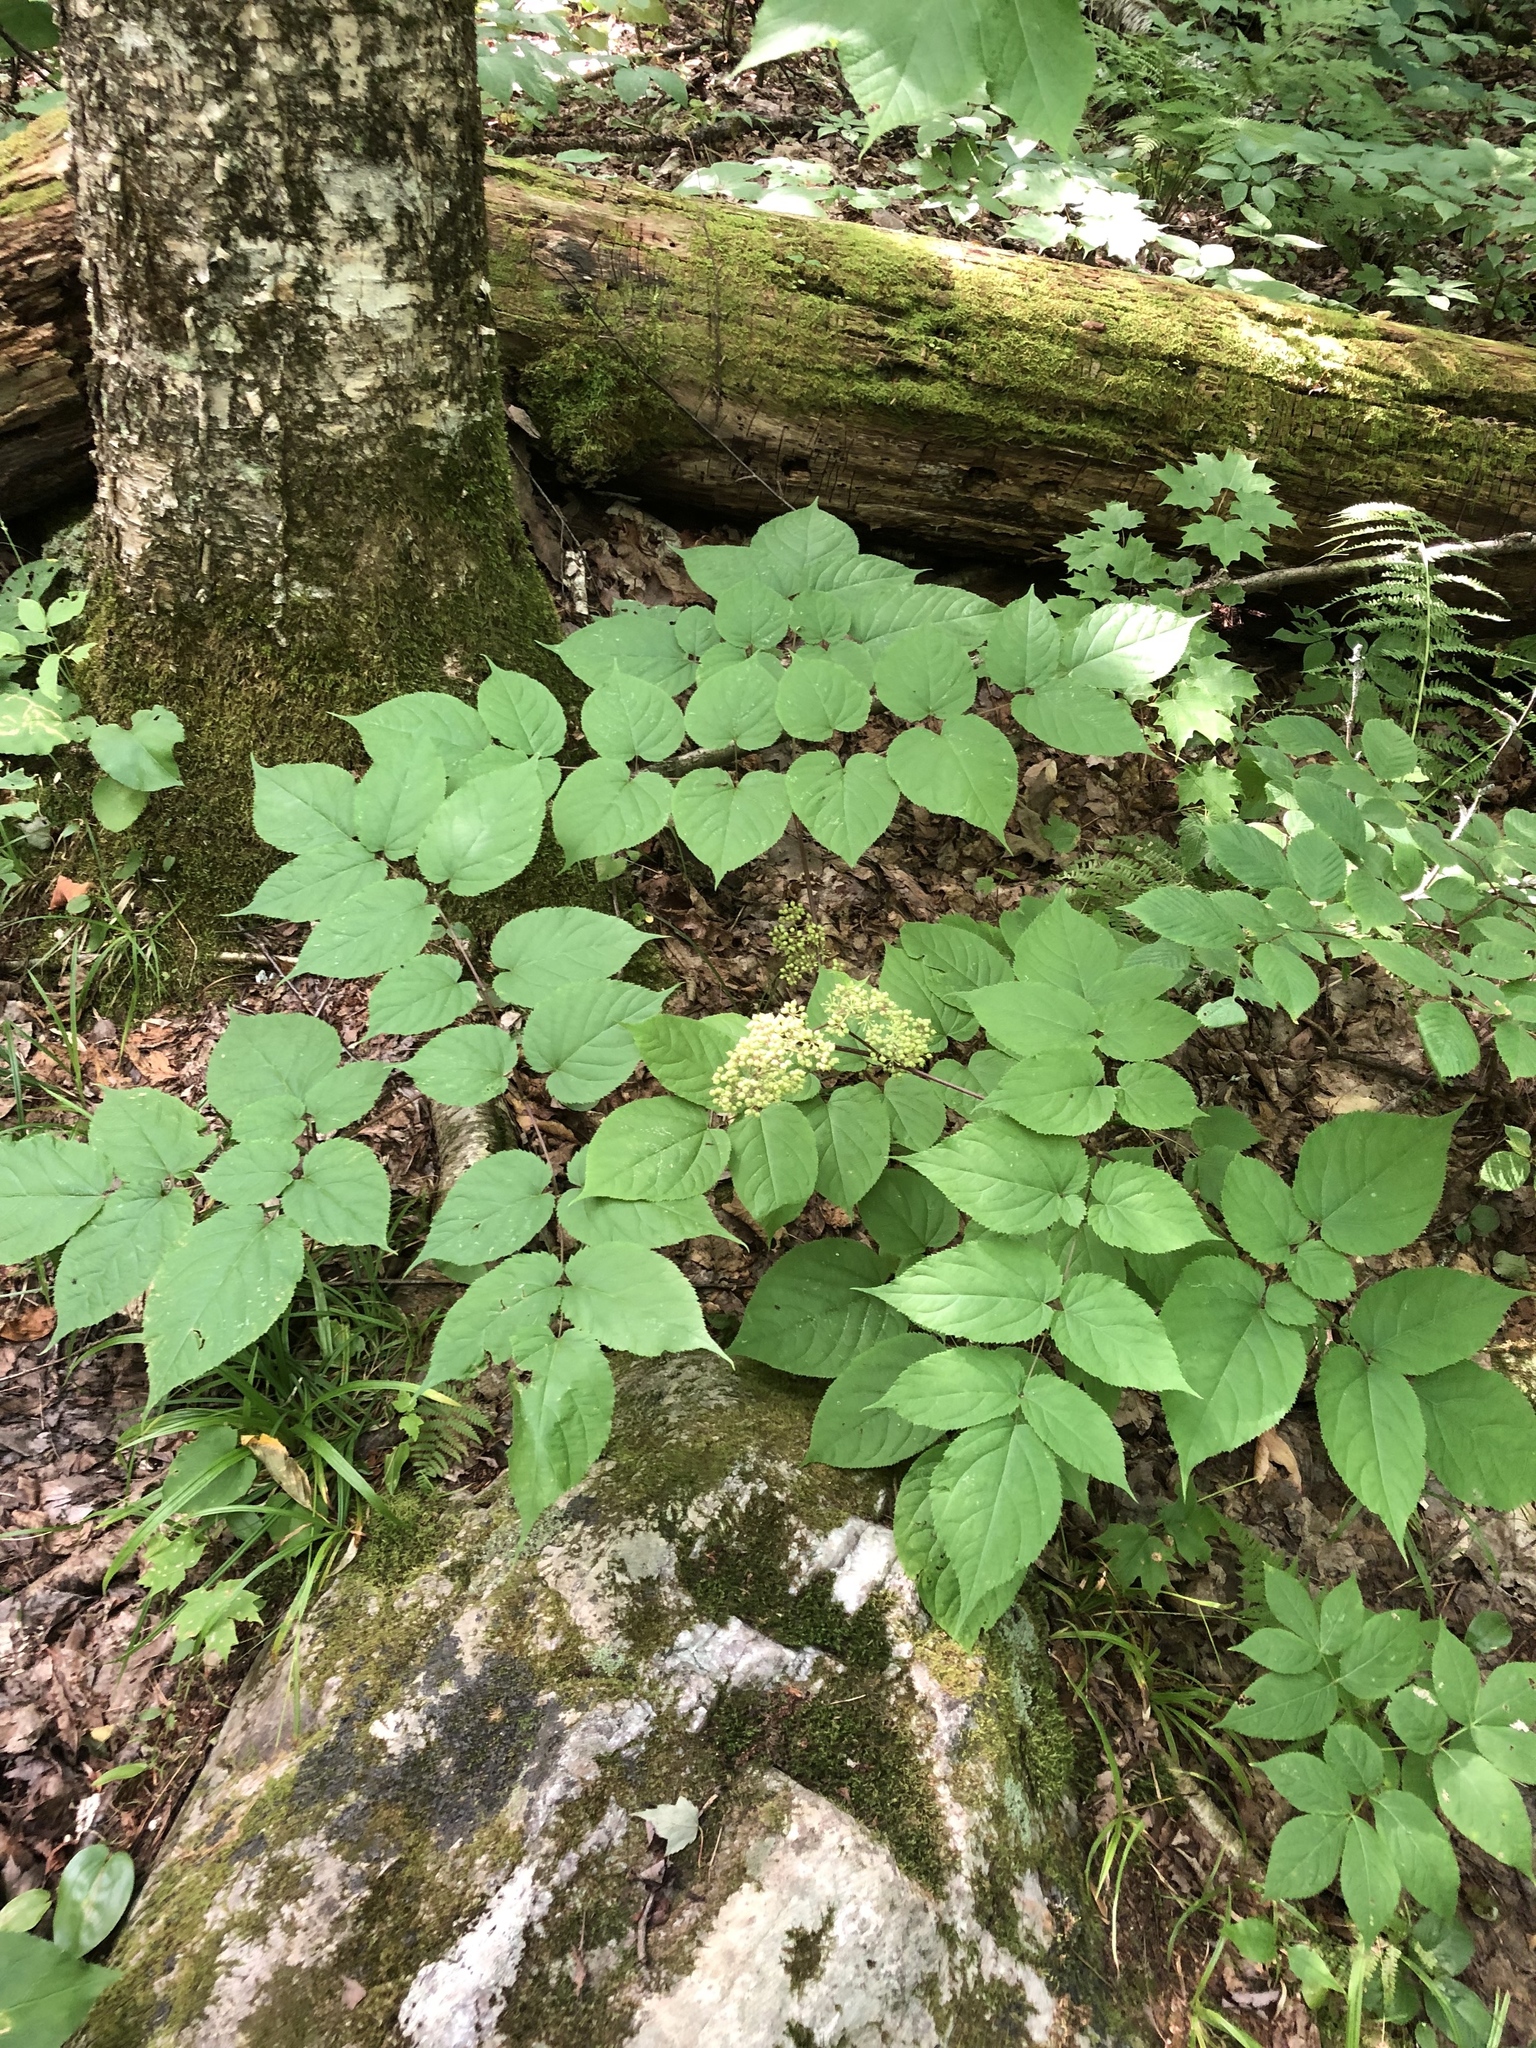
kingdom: Plantae
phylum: Tracheophyta
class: Magnoliopsida
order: Apiales
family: Araliaceae
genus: Aralia
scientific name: Aralia racemosa
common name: American-spikenard
